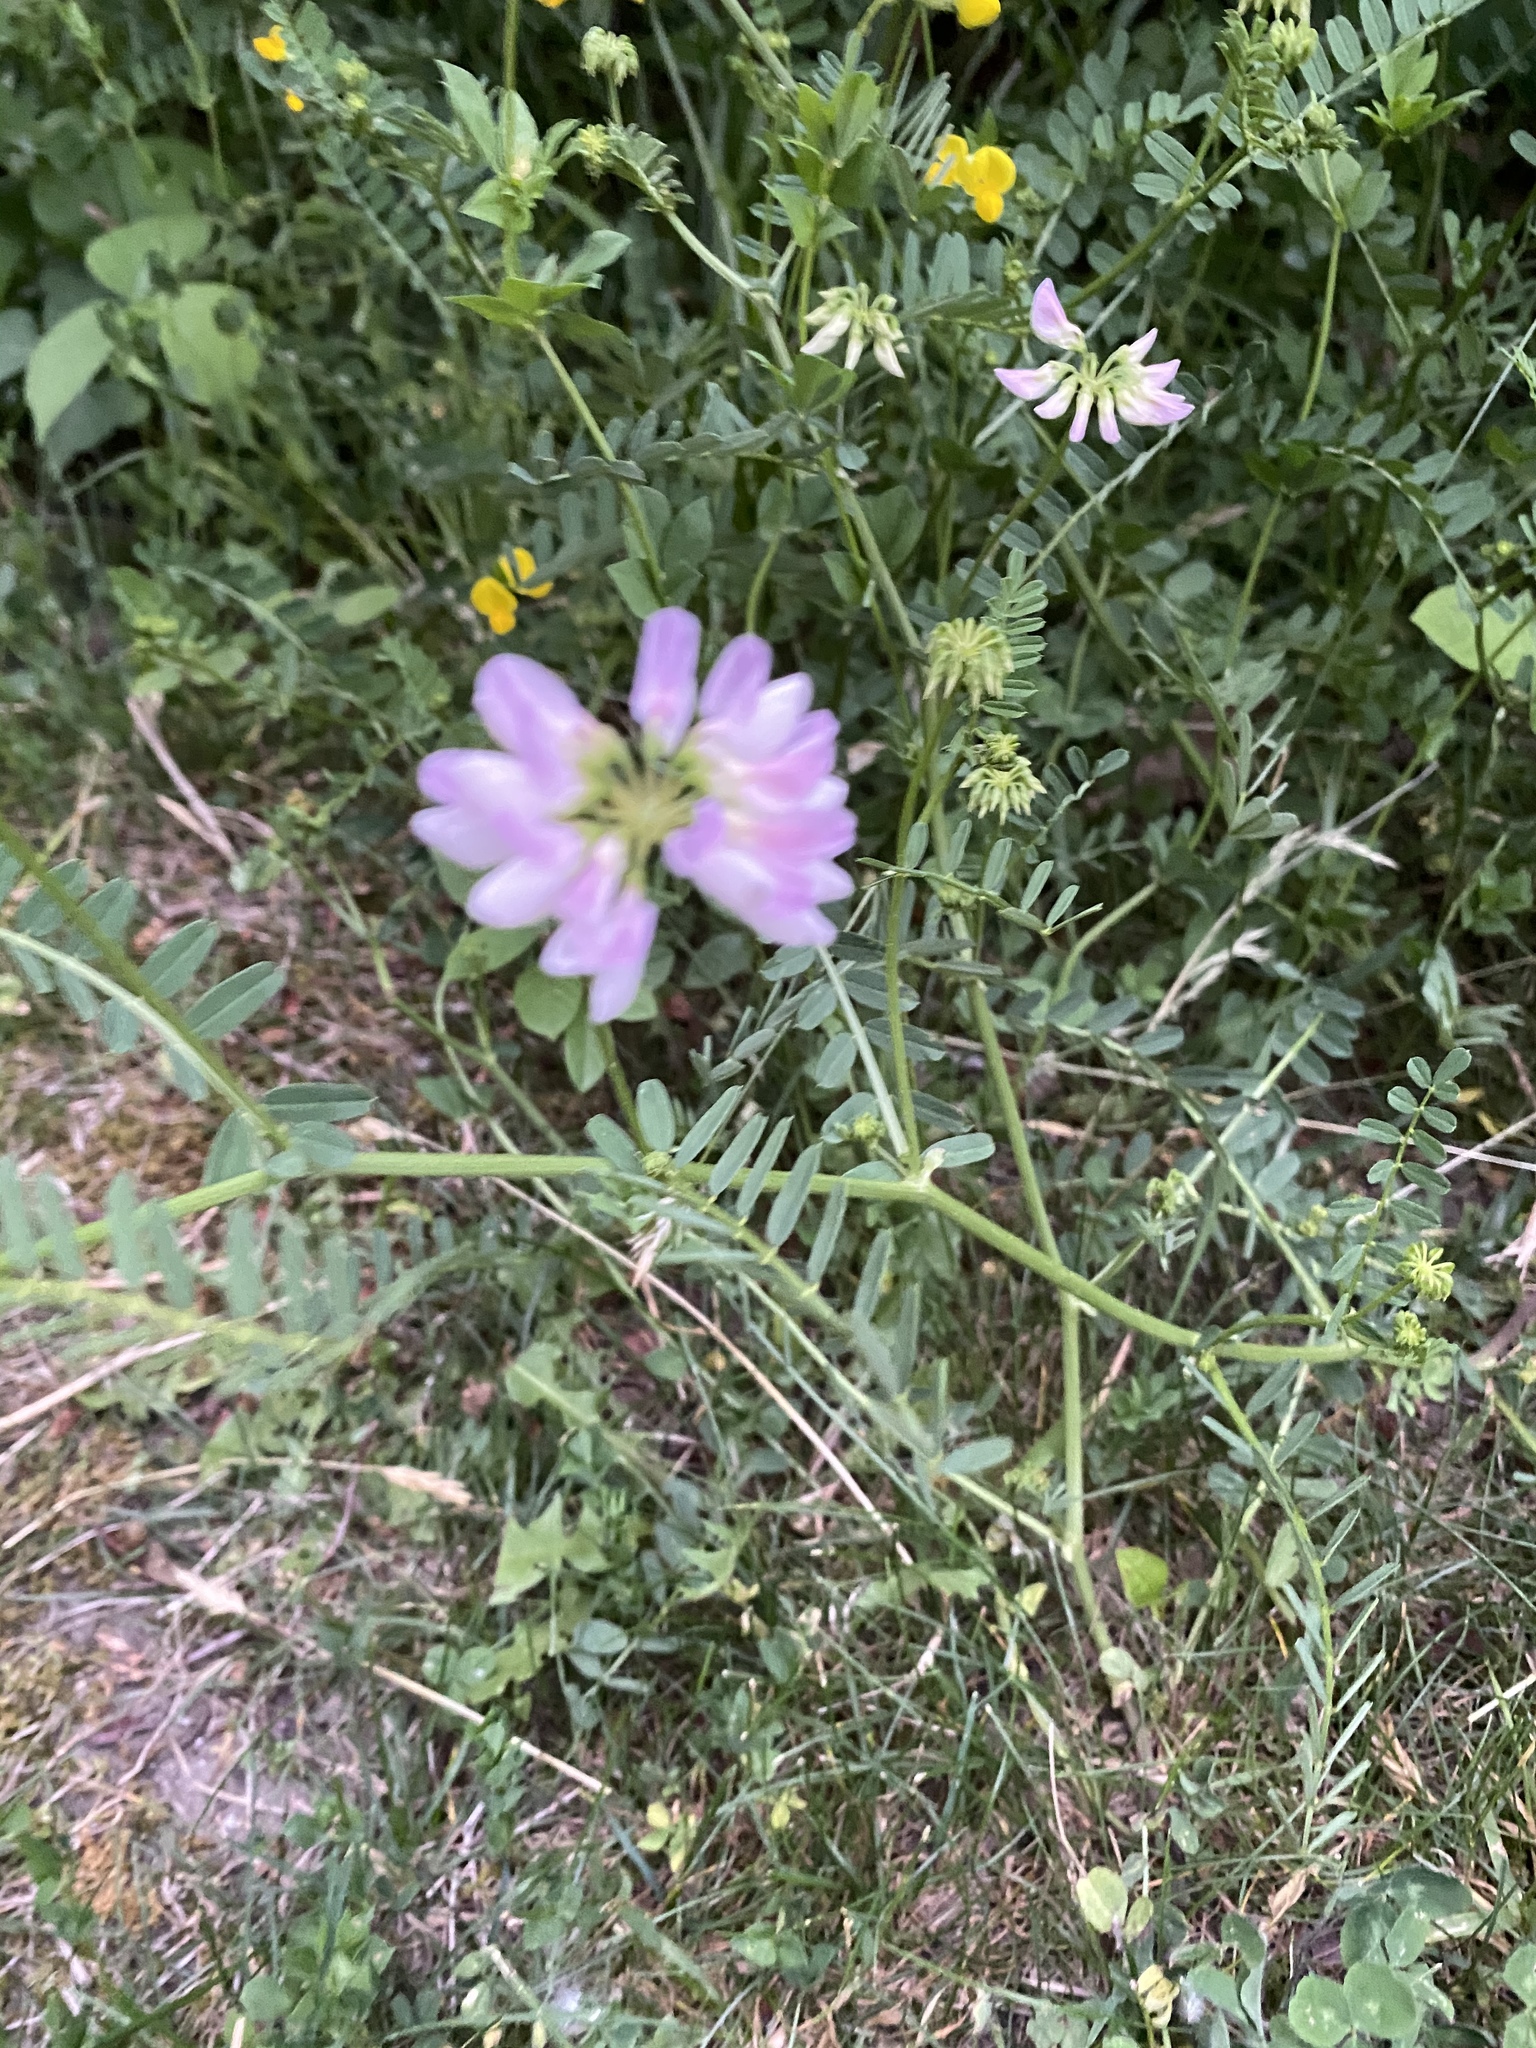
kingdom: Plantae
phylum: Tracheophyta
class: Magnoliopsida
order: Fabales
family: Fabaceae
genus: Coronilla
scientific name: Coronilla varia
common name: Crownvetch
